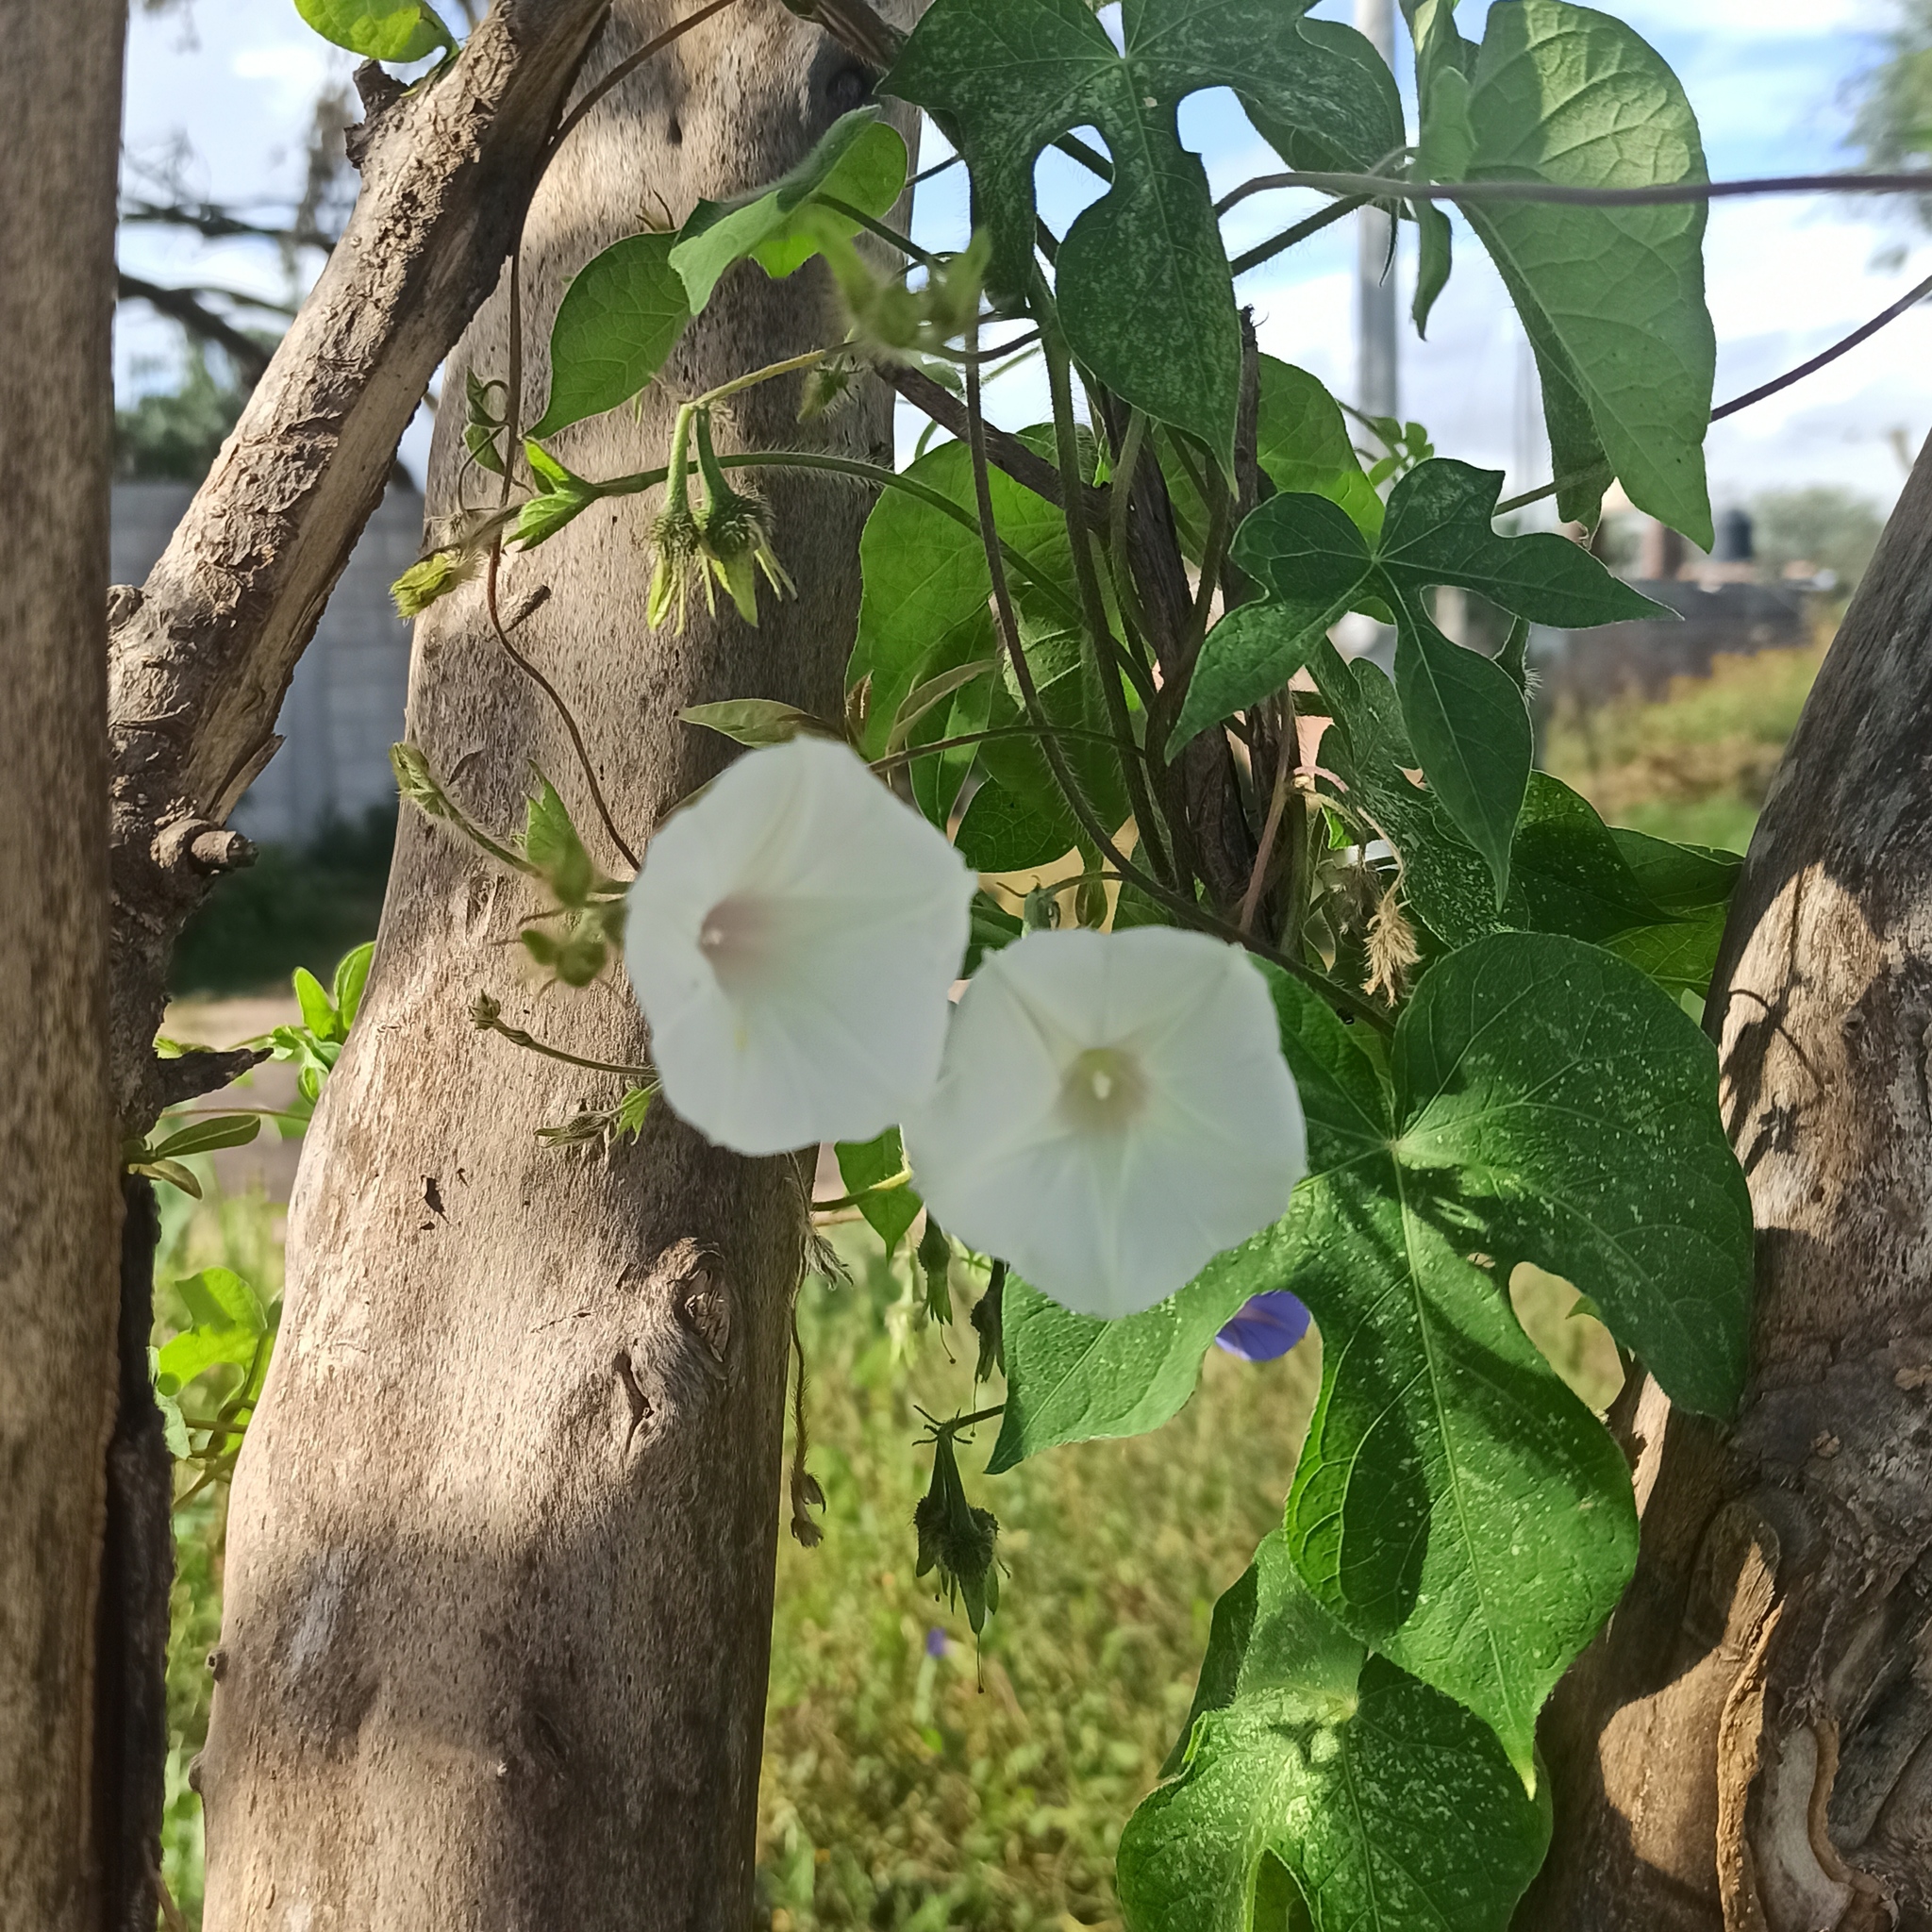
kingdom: Plantae
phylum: Tracheophyta
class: Magnoliopsida
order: Solanales
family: Convolvulaceae
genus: Ipomoea
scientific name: Ipomoea purpurea
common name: Common morning-glory
